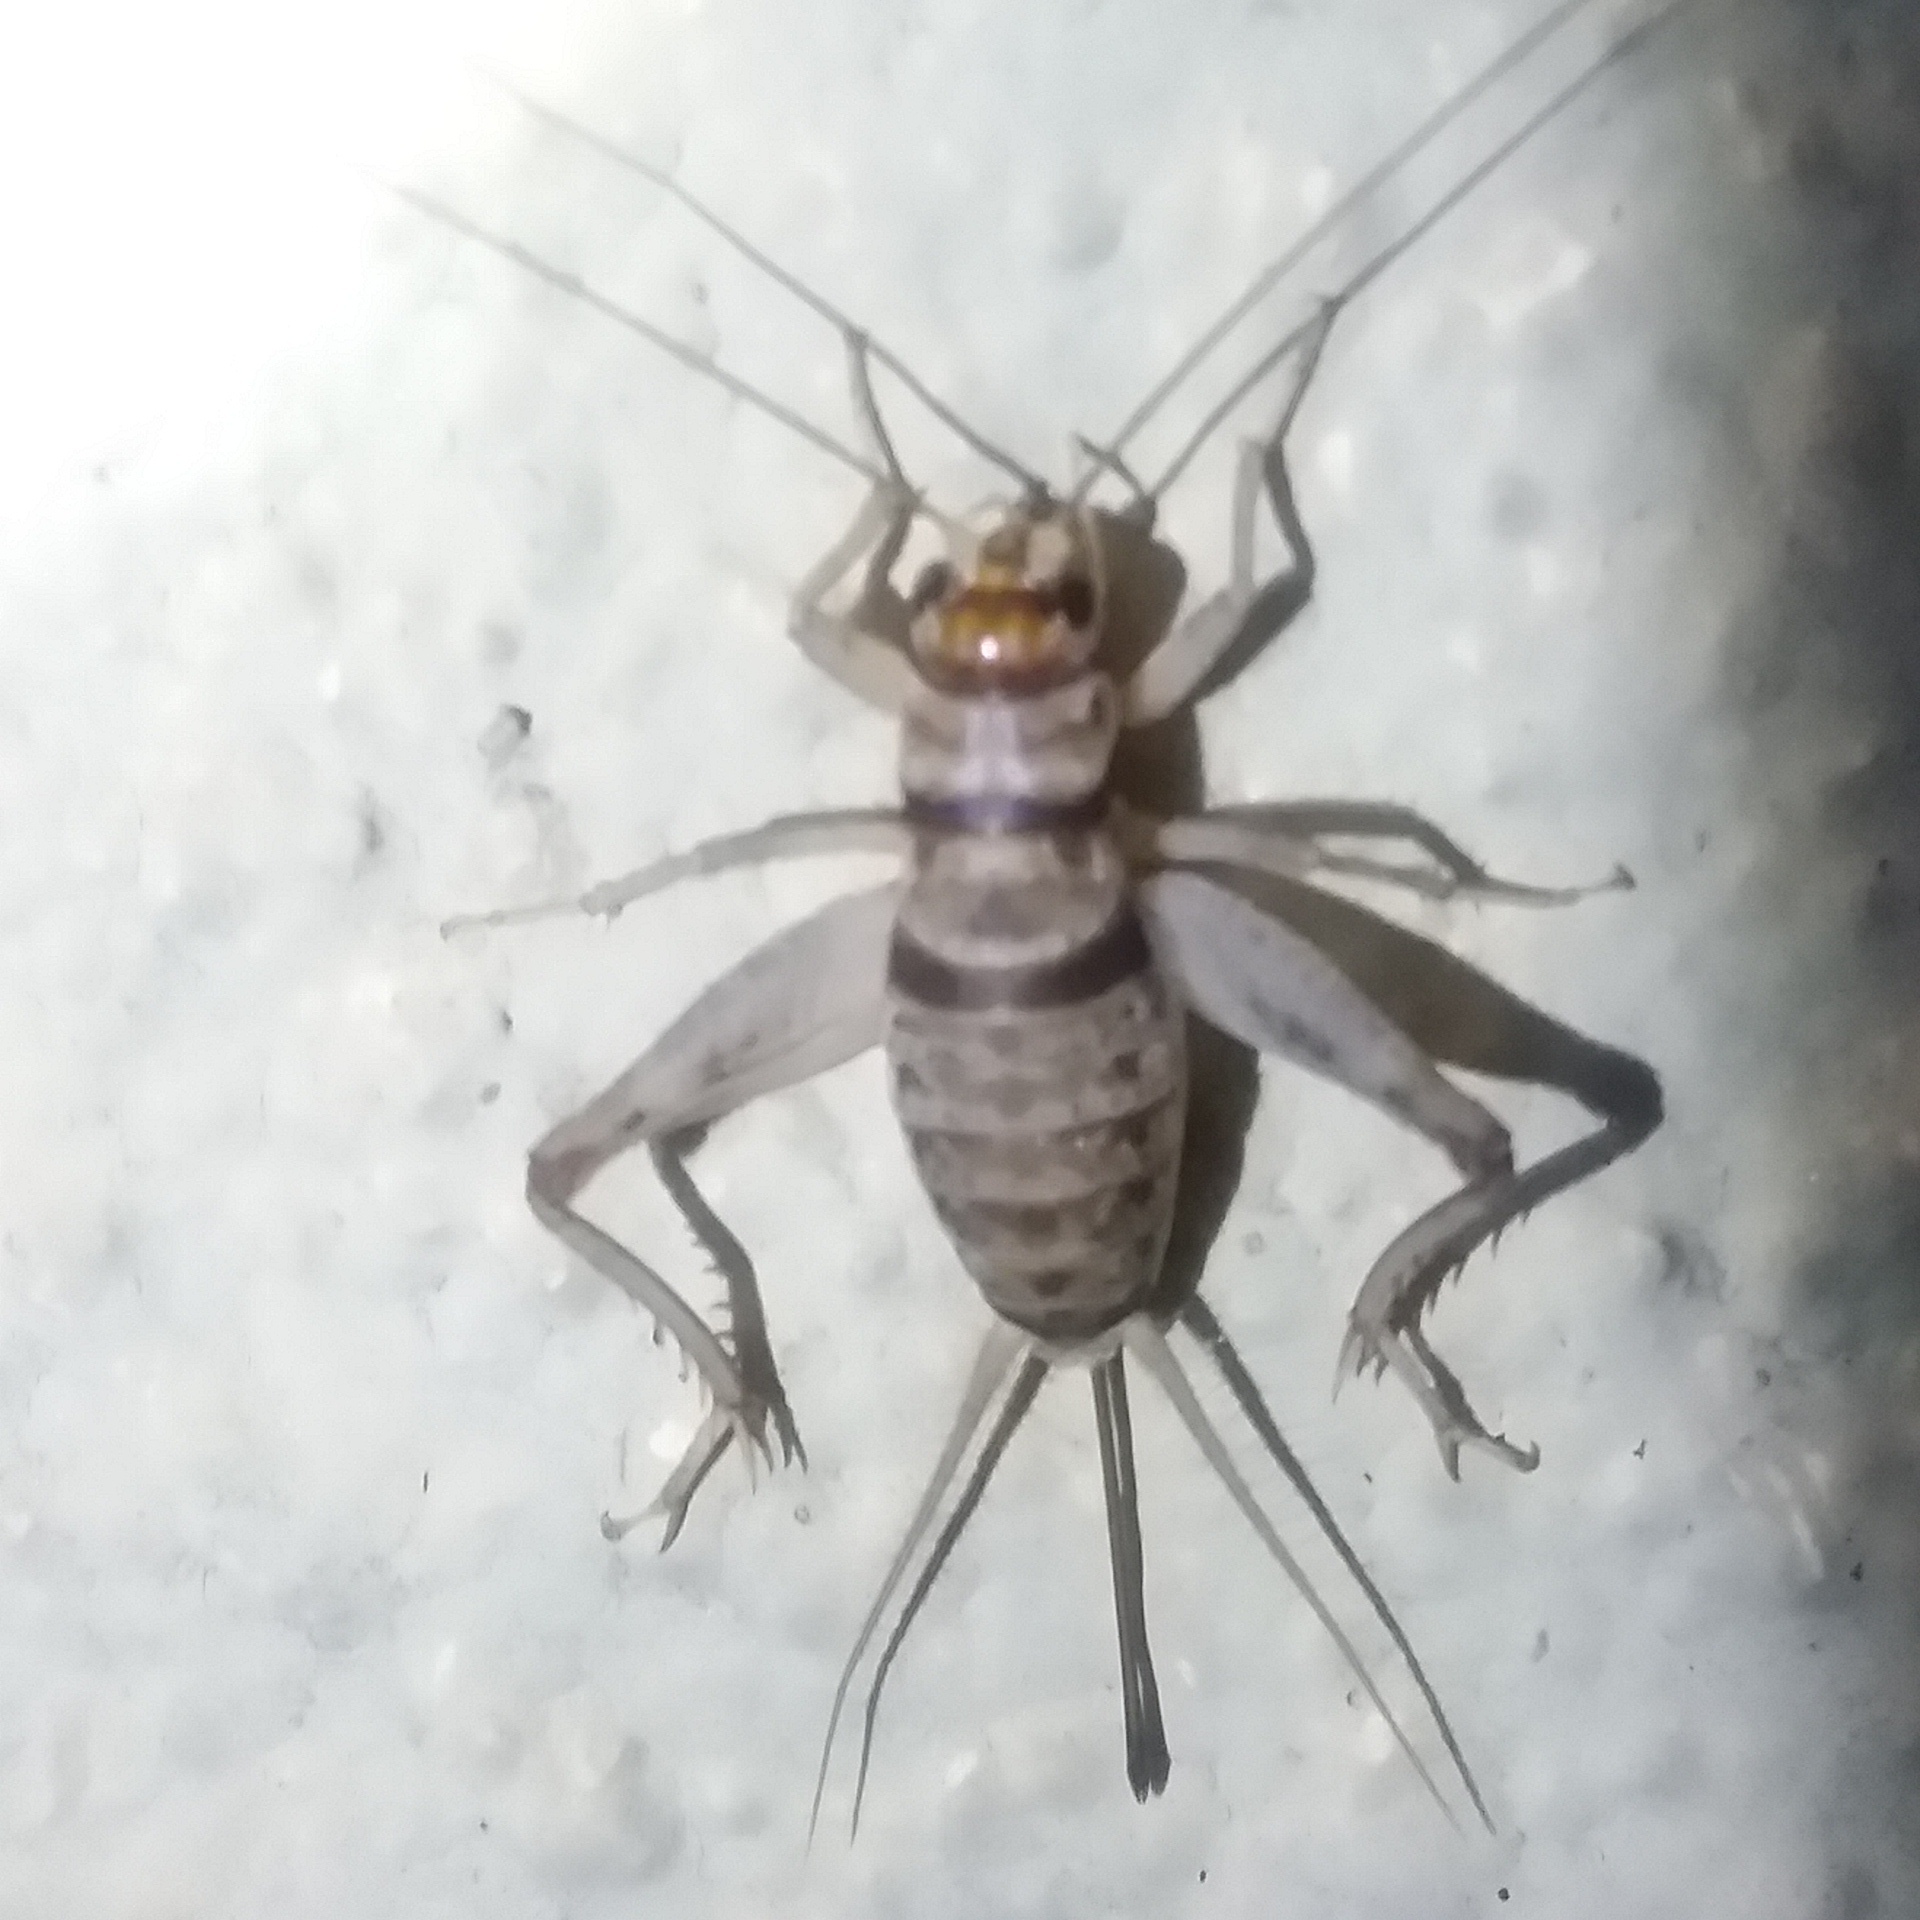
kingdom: Animalia
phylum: Arthropoda
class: Insecta
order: Orthoptera
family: Gryllidae
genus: Gryllodes
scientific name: Gryllodes sigillatus
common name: Tropical house cricket
